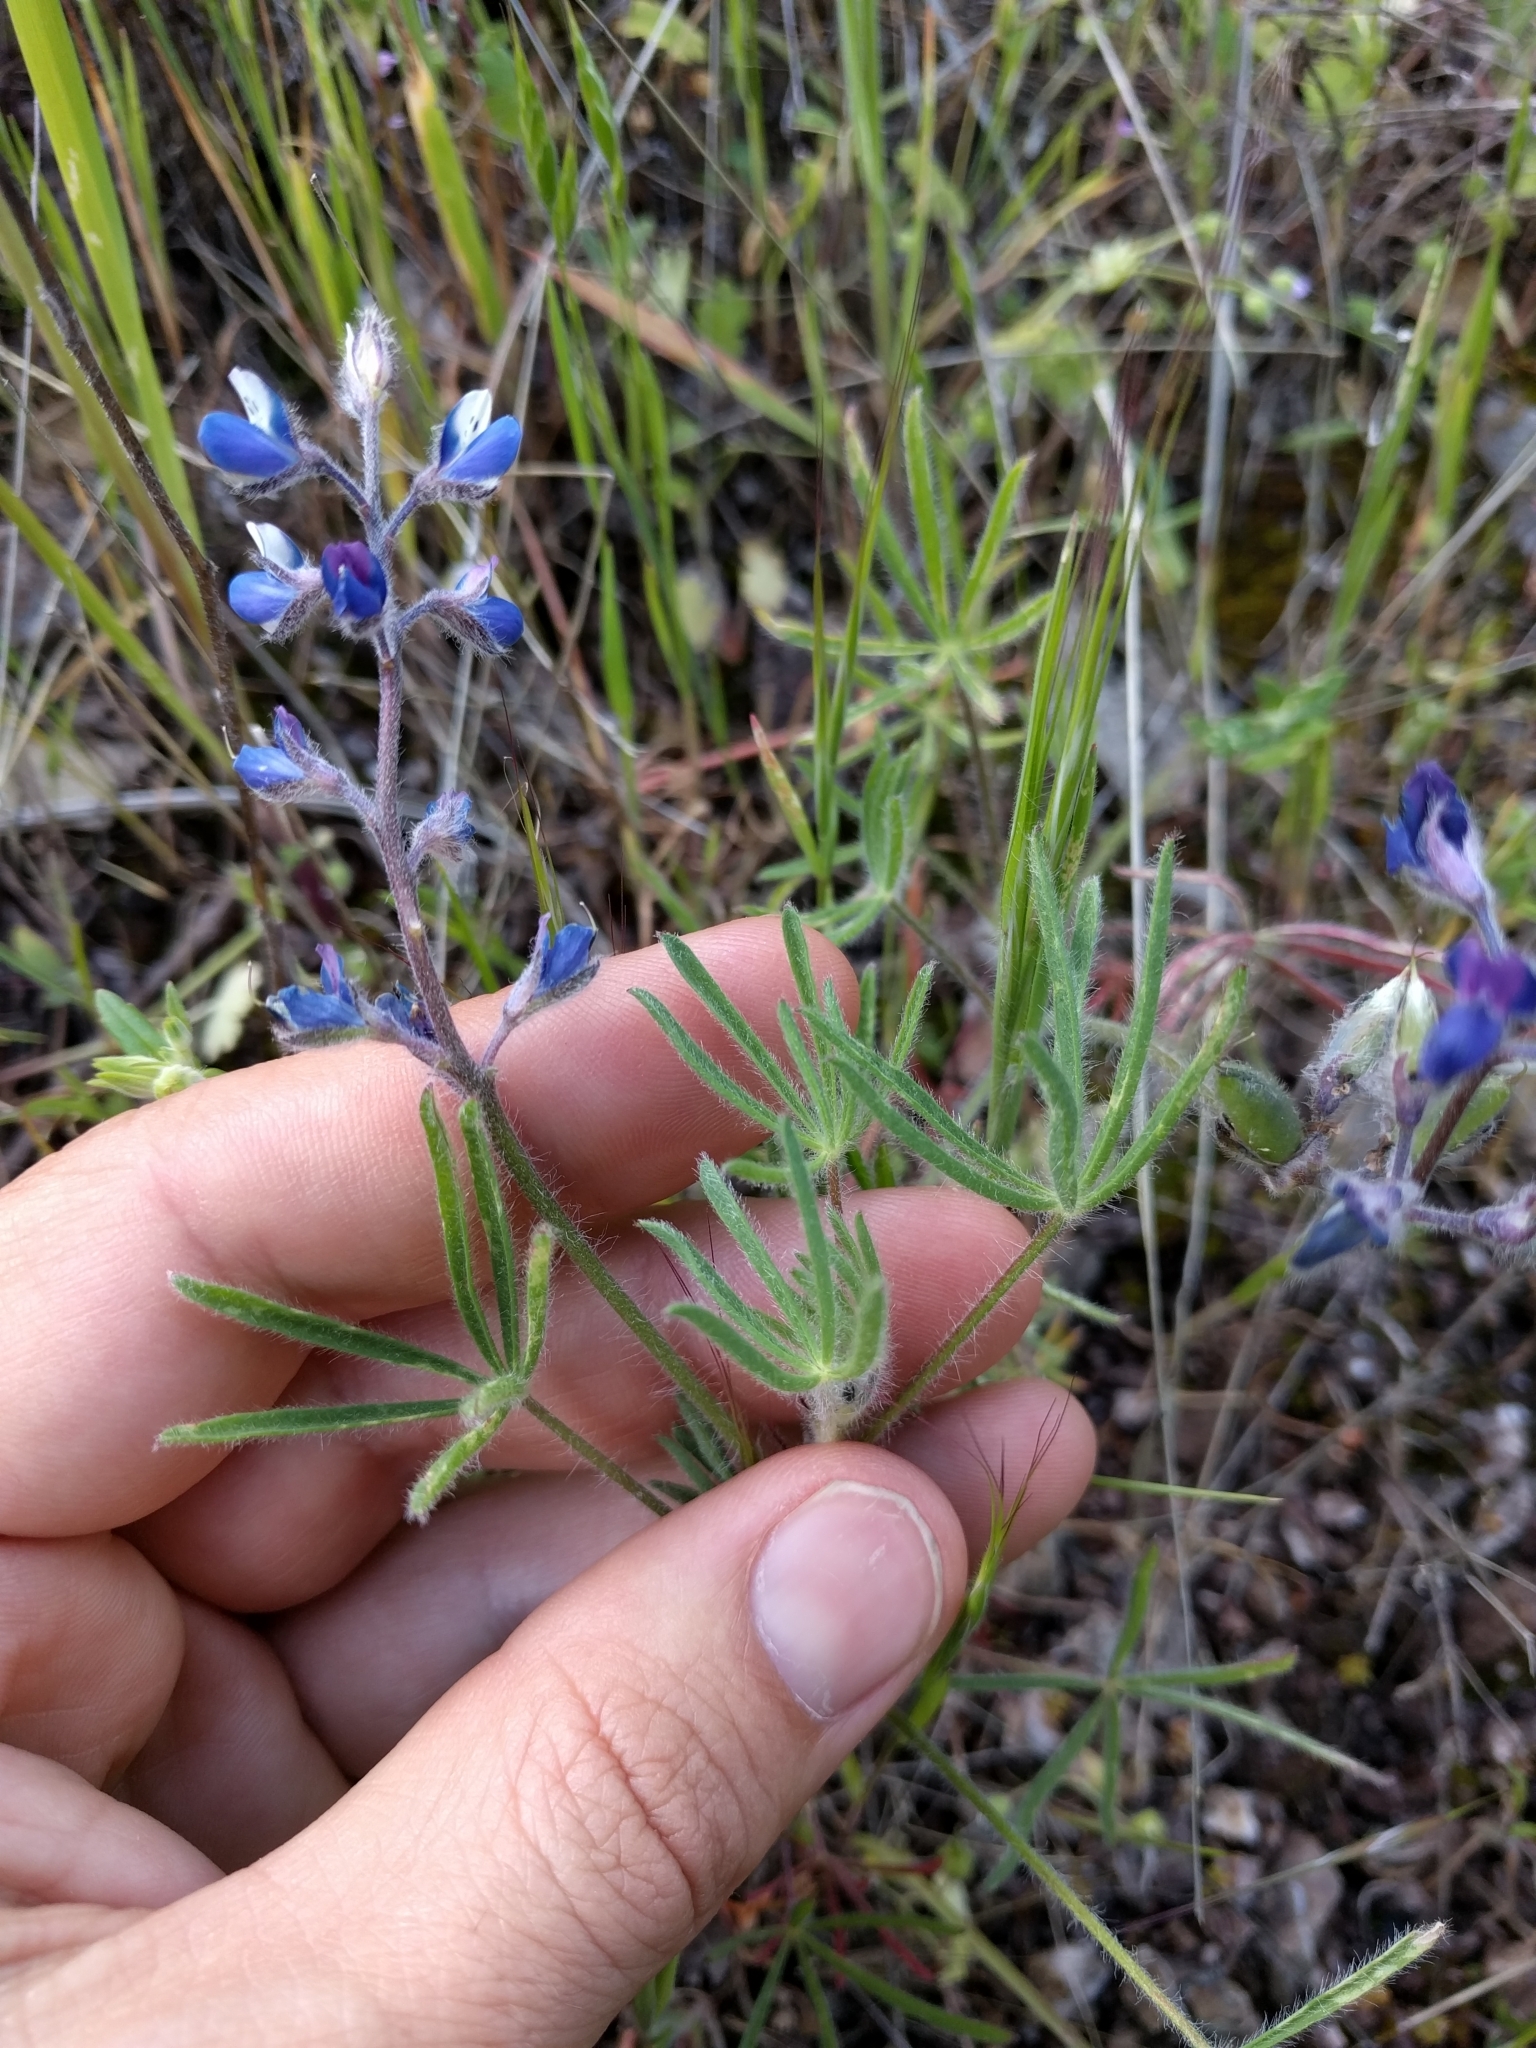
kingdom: Plantae
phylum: Tracheophyta
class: Magnoliopsida
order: Fabales
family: Fabaceae
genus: Lupinus
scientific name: Lupinus bicolor
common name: Miniature lupine
